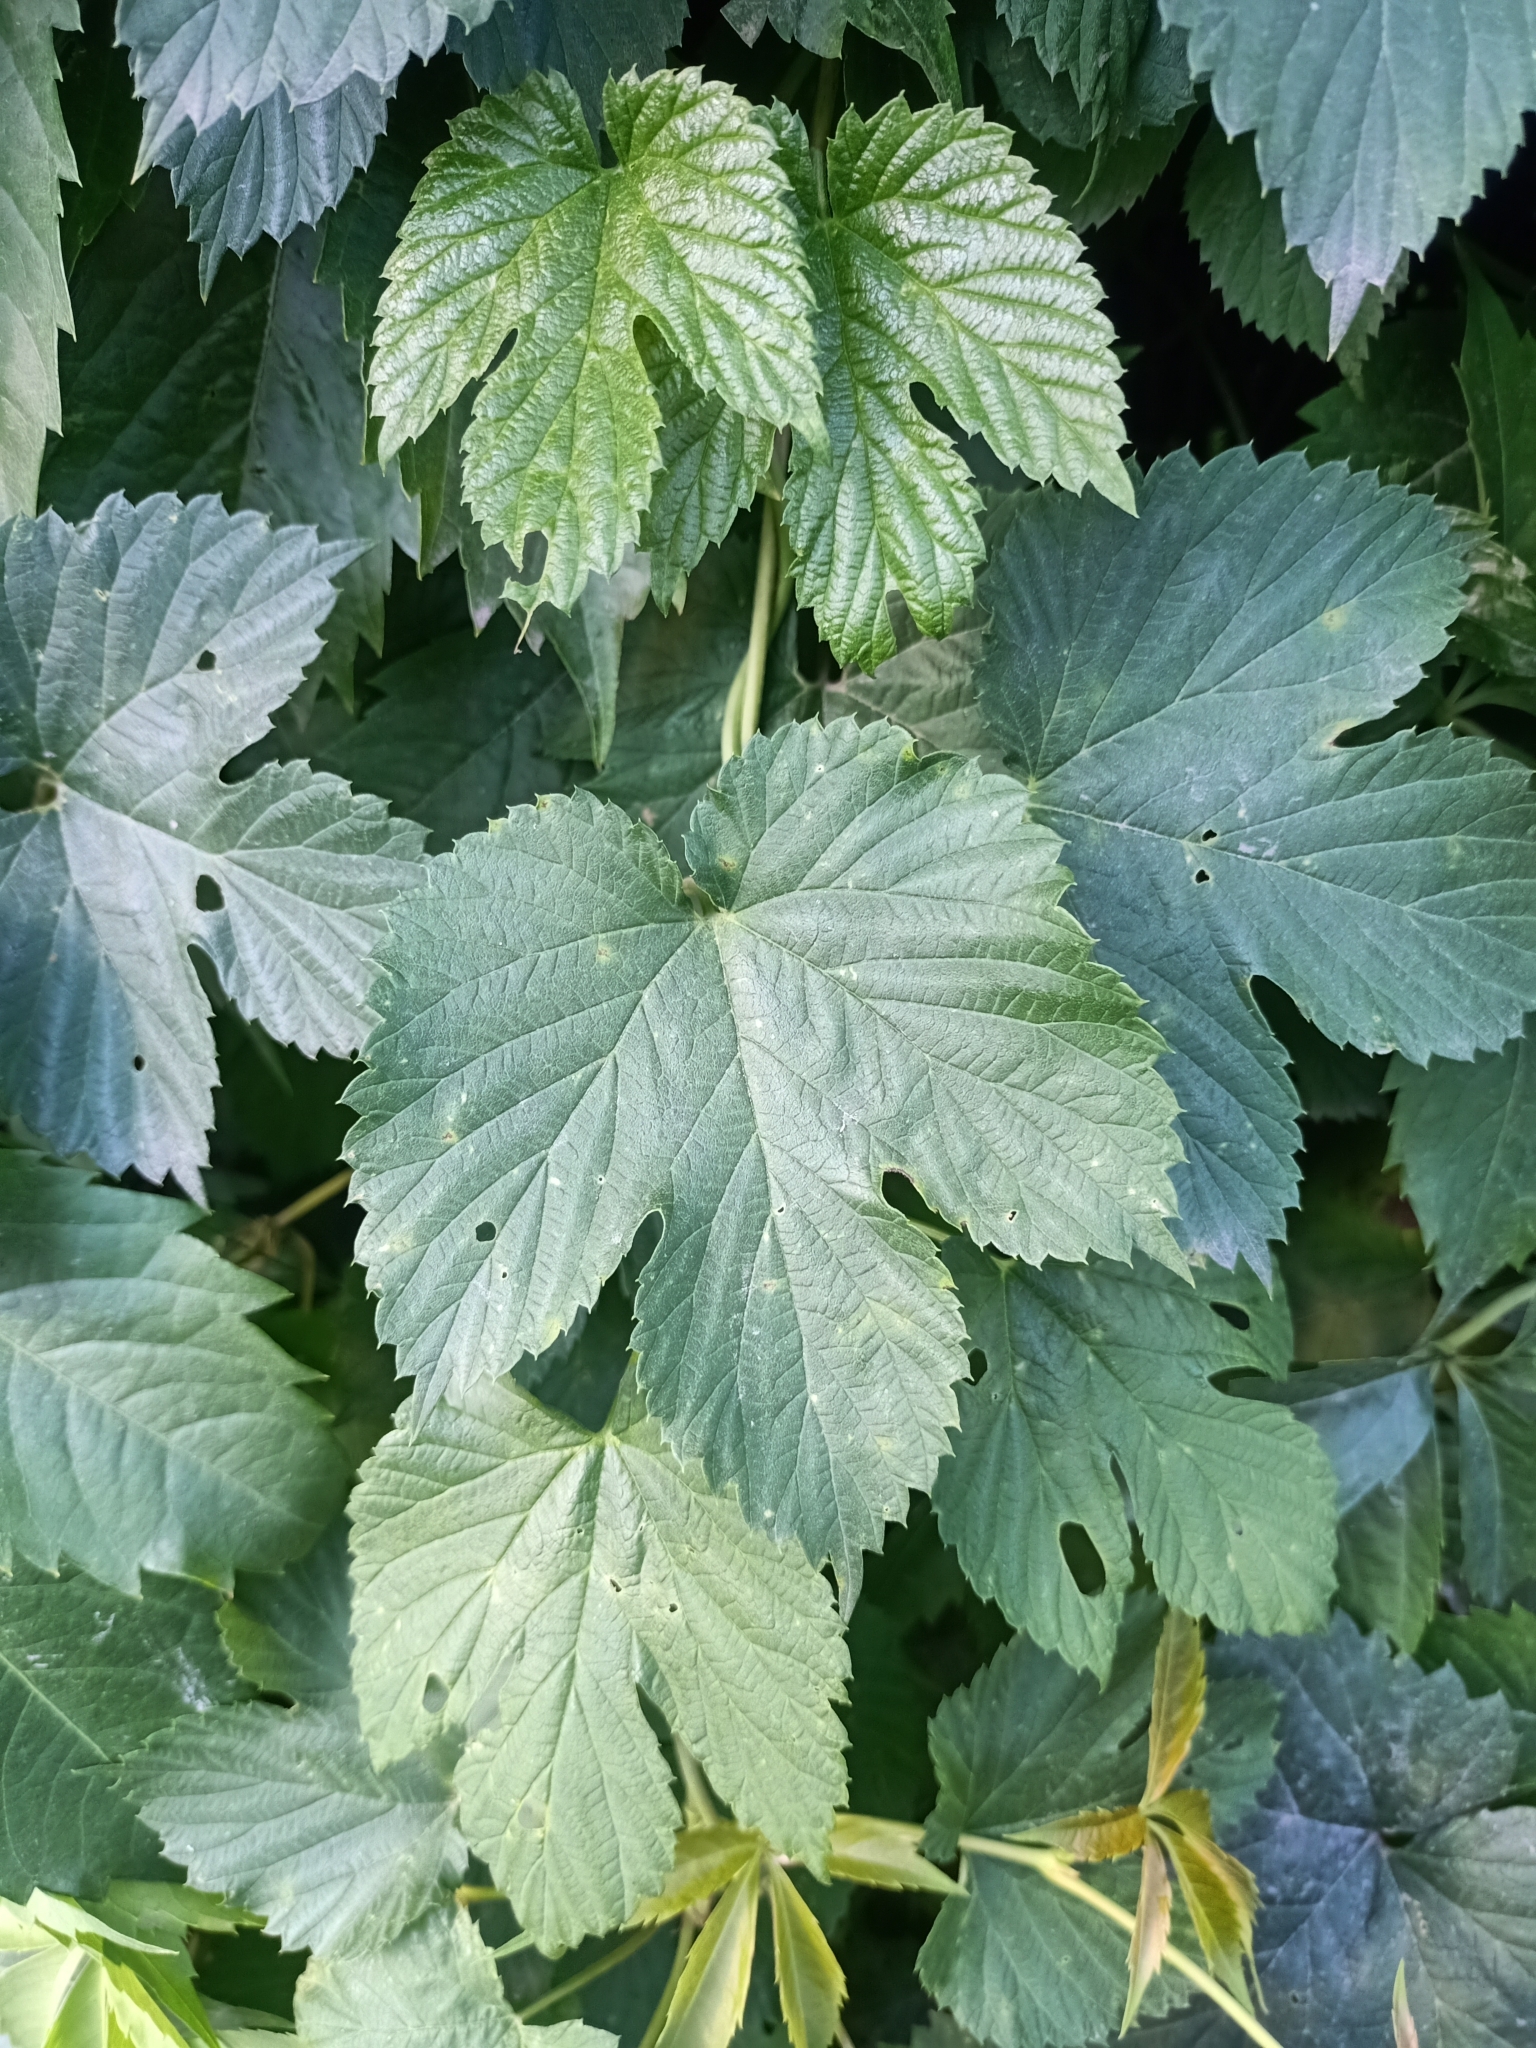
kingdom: Plantae
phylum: Tracheophyta
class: Magnoliopsida
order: Rosales
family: Cannabaceae
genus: Humulus
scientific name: Humulus lupulus
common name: Hop
